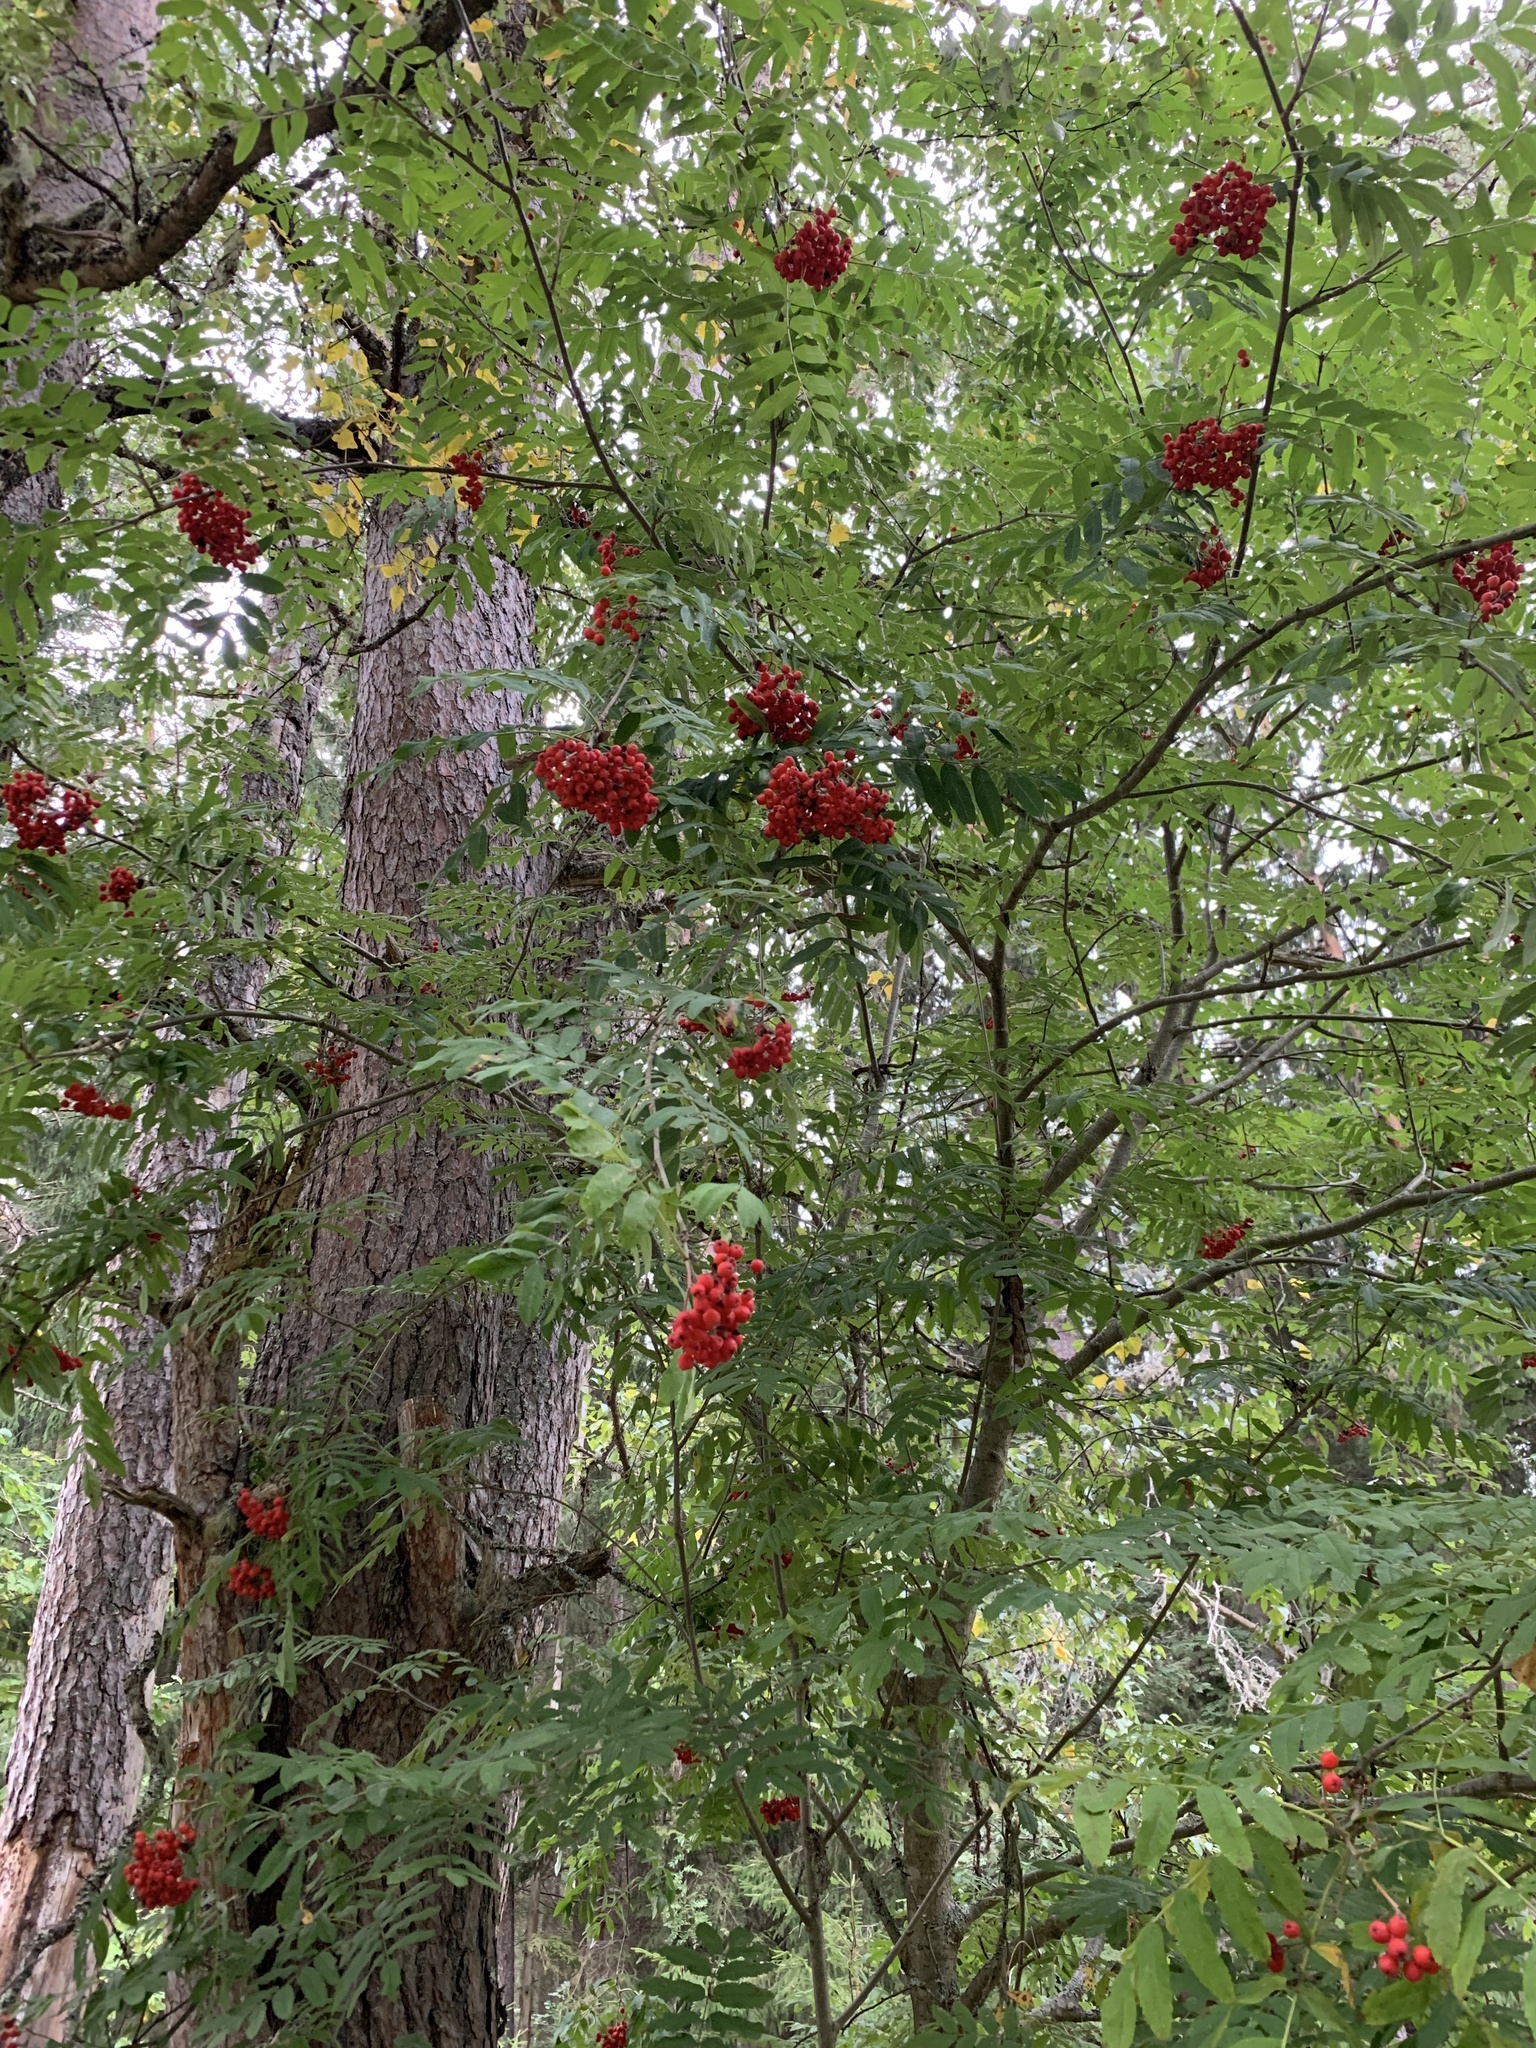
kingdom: Plantae
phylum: Tracheophyta
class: Magnoliopsida
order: Rosales
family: Rosaceae
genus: Sorbus
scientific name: Sorbus aucuparia
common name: Rowan
